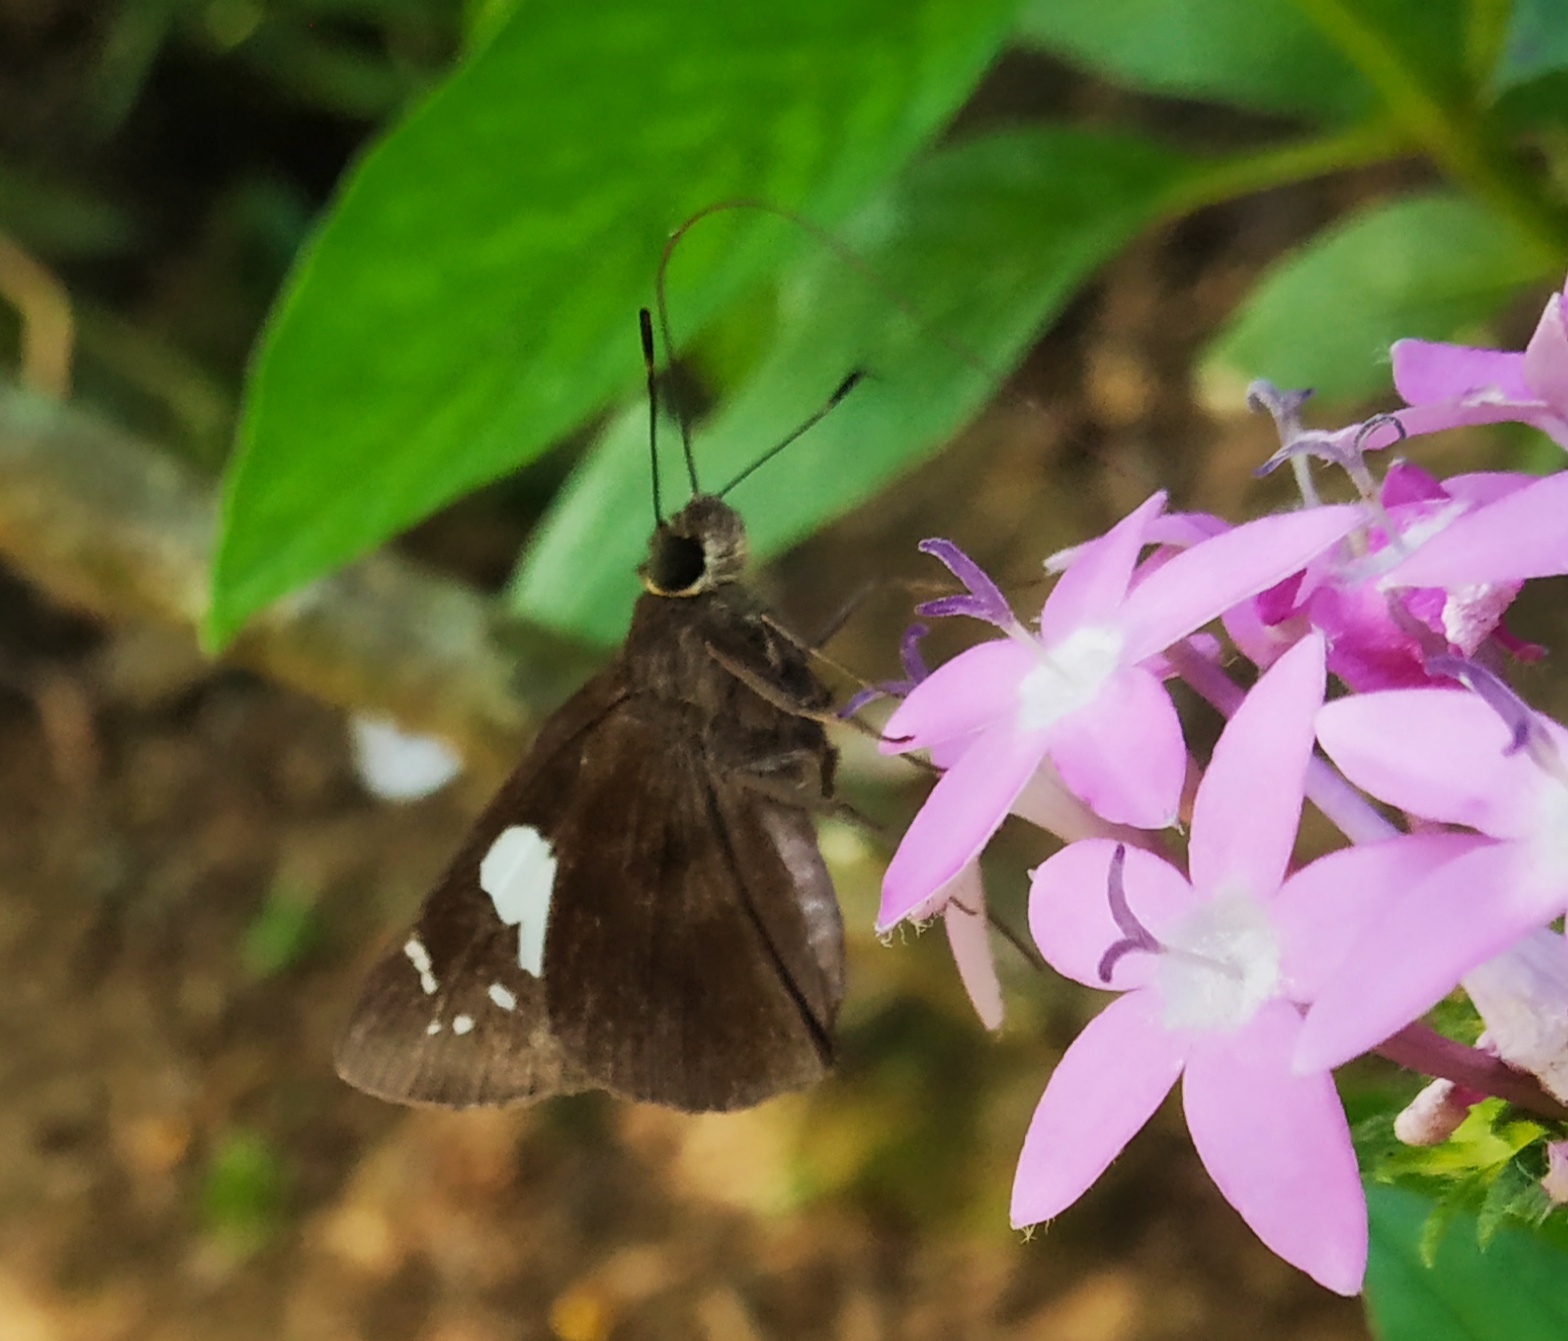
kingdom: Animalia
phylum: Arthropoda
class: Insecta
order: Lepidoptera
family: Hesperiidae
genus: Notocrypta
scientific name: Notocrypta curvifascia
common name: Restricted demon
